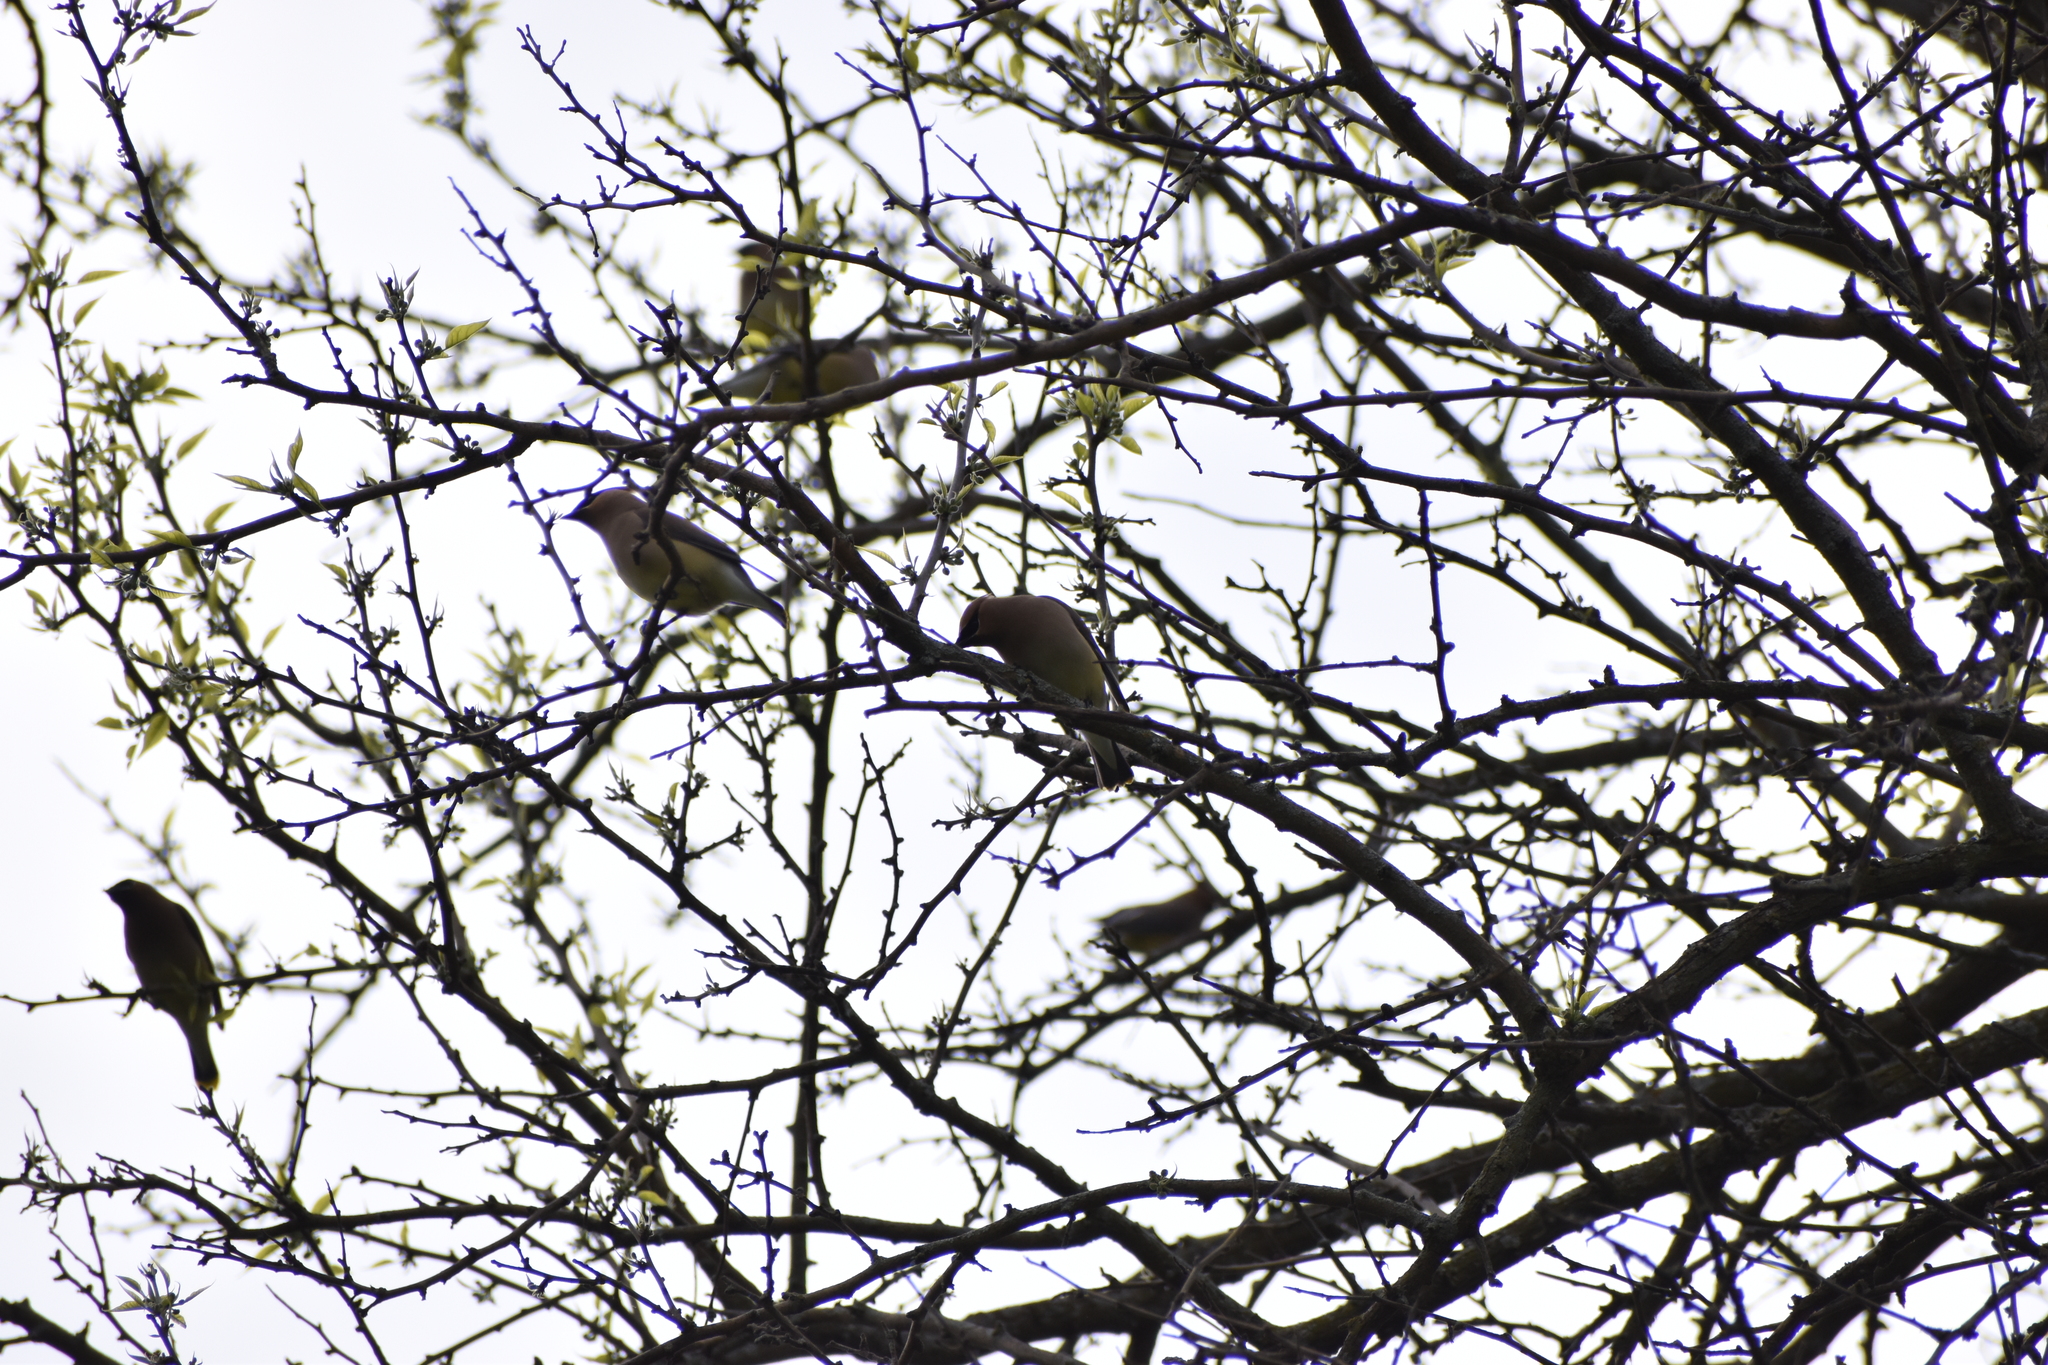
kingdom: Animalia
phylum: Chordata
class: Aves
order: Passeriformes
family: Bombycillidae
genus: Bombycilla
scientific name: Bombycilla cedrorum
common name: Cedar waxwing
